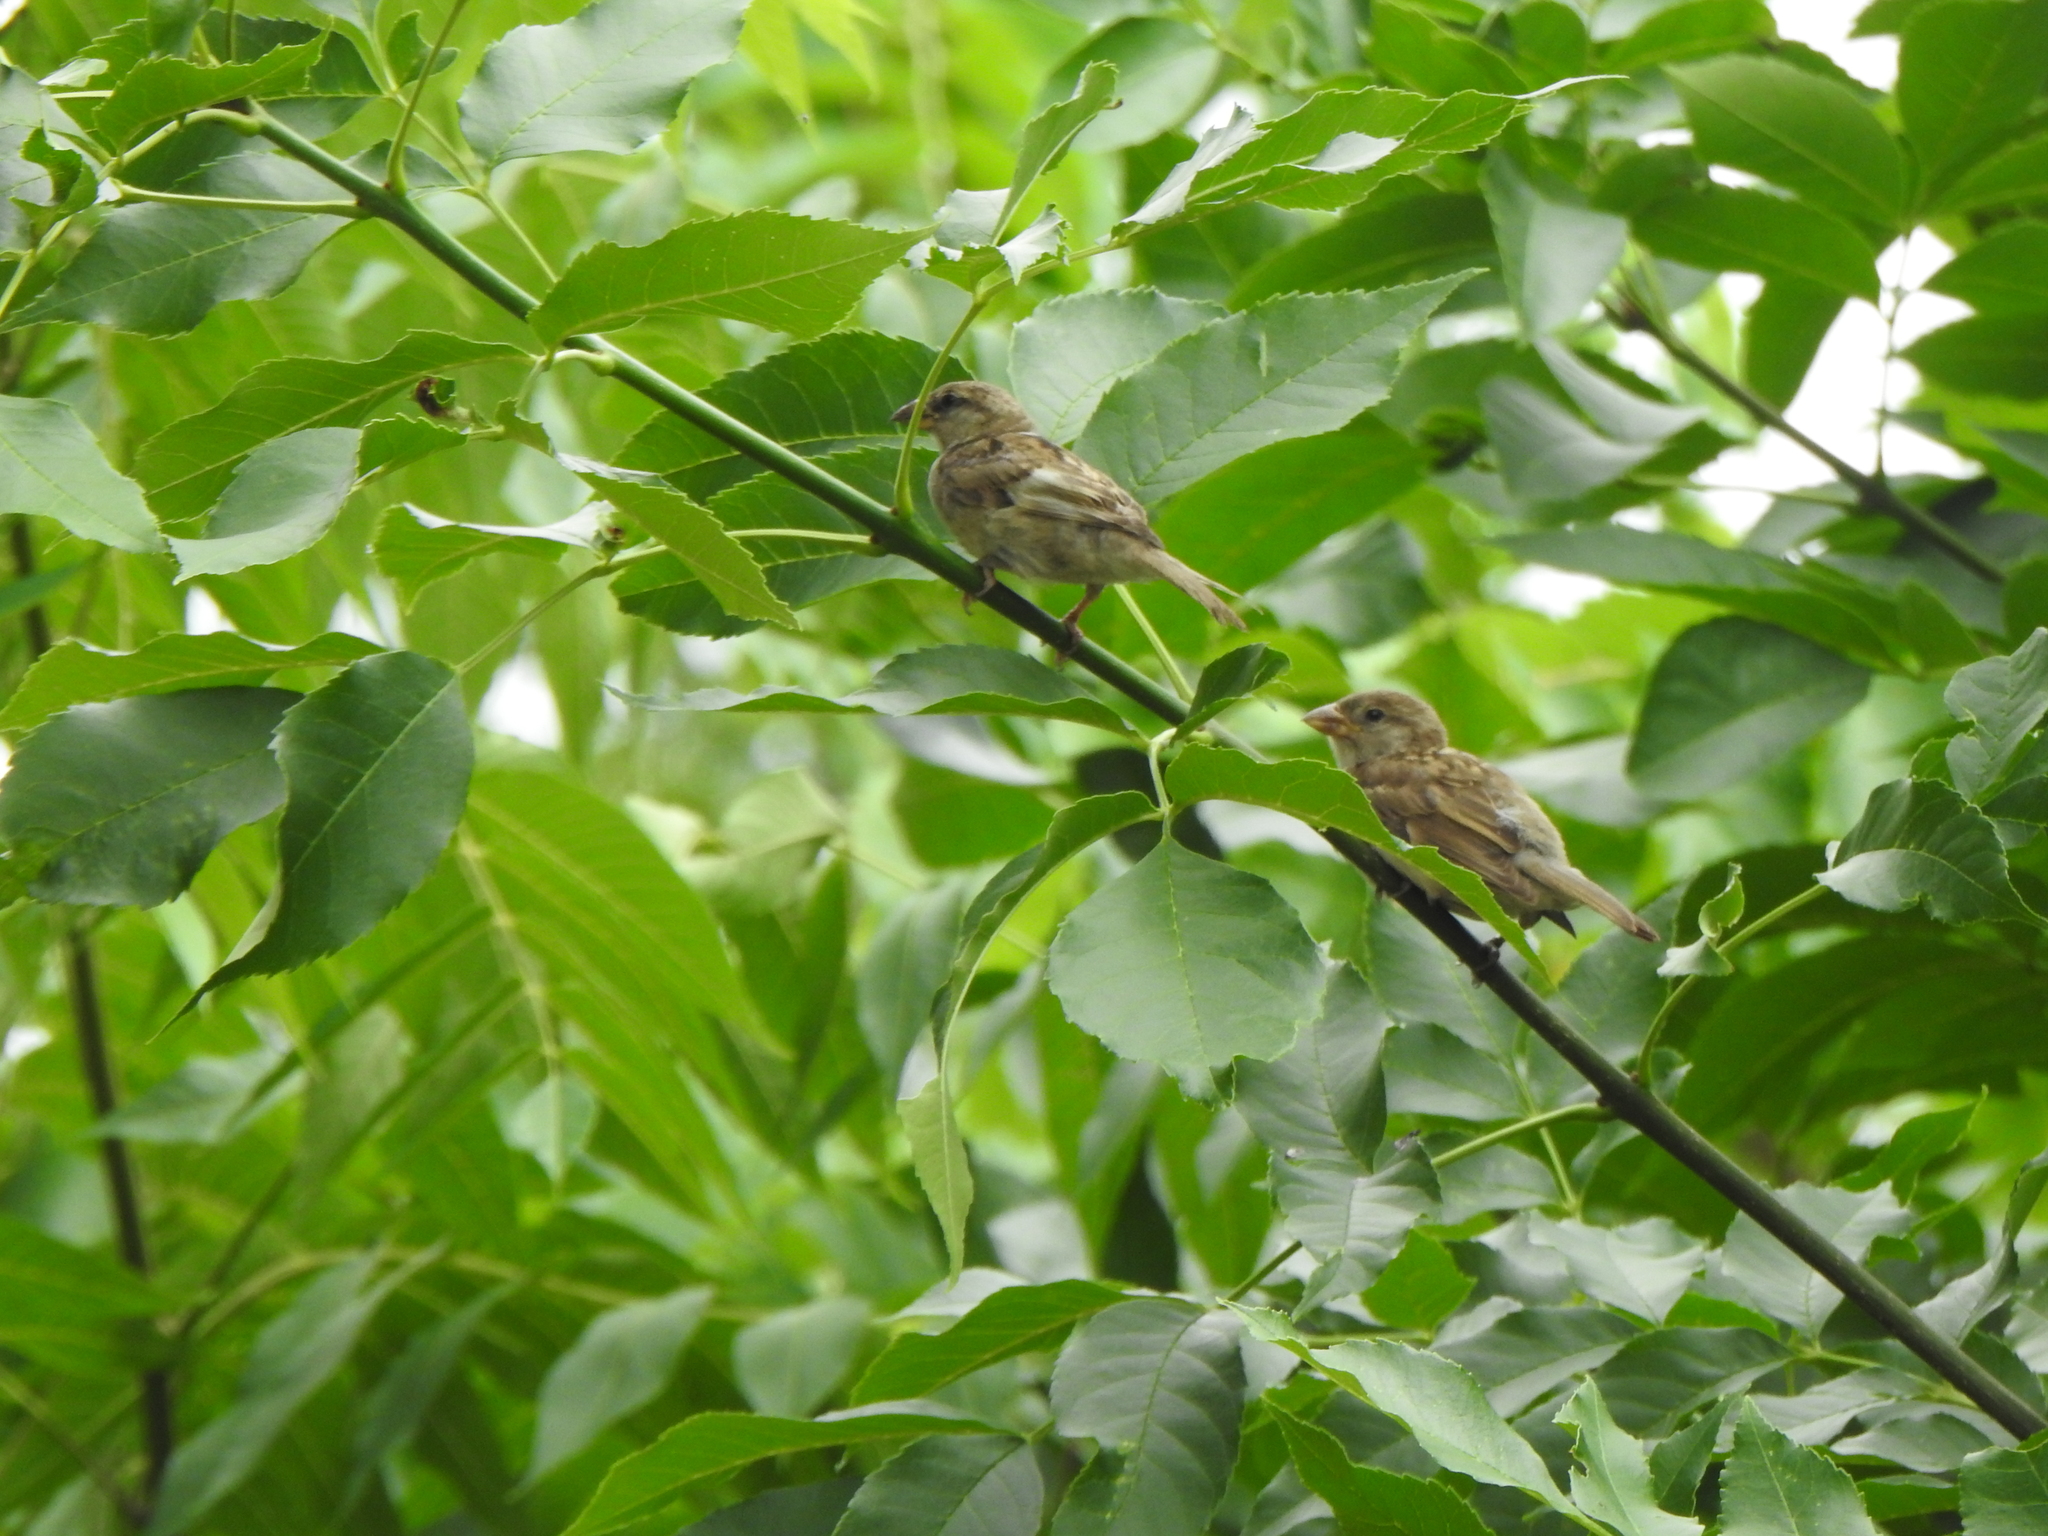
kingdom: Animalia
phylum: Chordata
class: Aves
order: Passeriformes
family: Passeridae
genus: Passer
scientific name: Passer domesticus
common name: House sparrow
